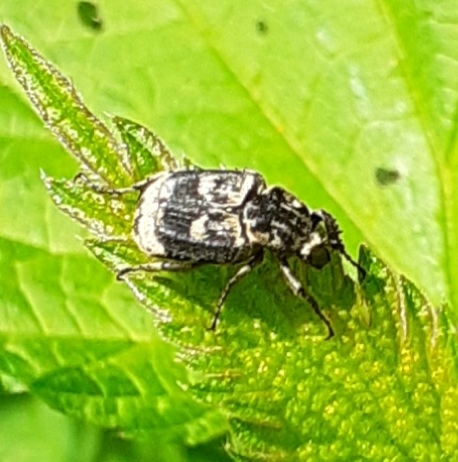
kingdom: Animalia
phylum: Arthropoda
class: Insecta
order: Coleoptera
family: Scarabaeidae
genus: Valgus
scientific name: Valgus hemipterus
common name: Bug flower chafer
